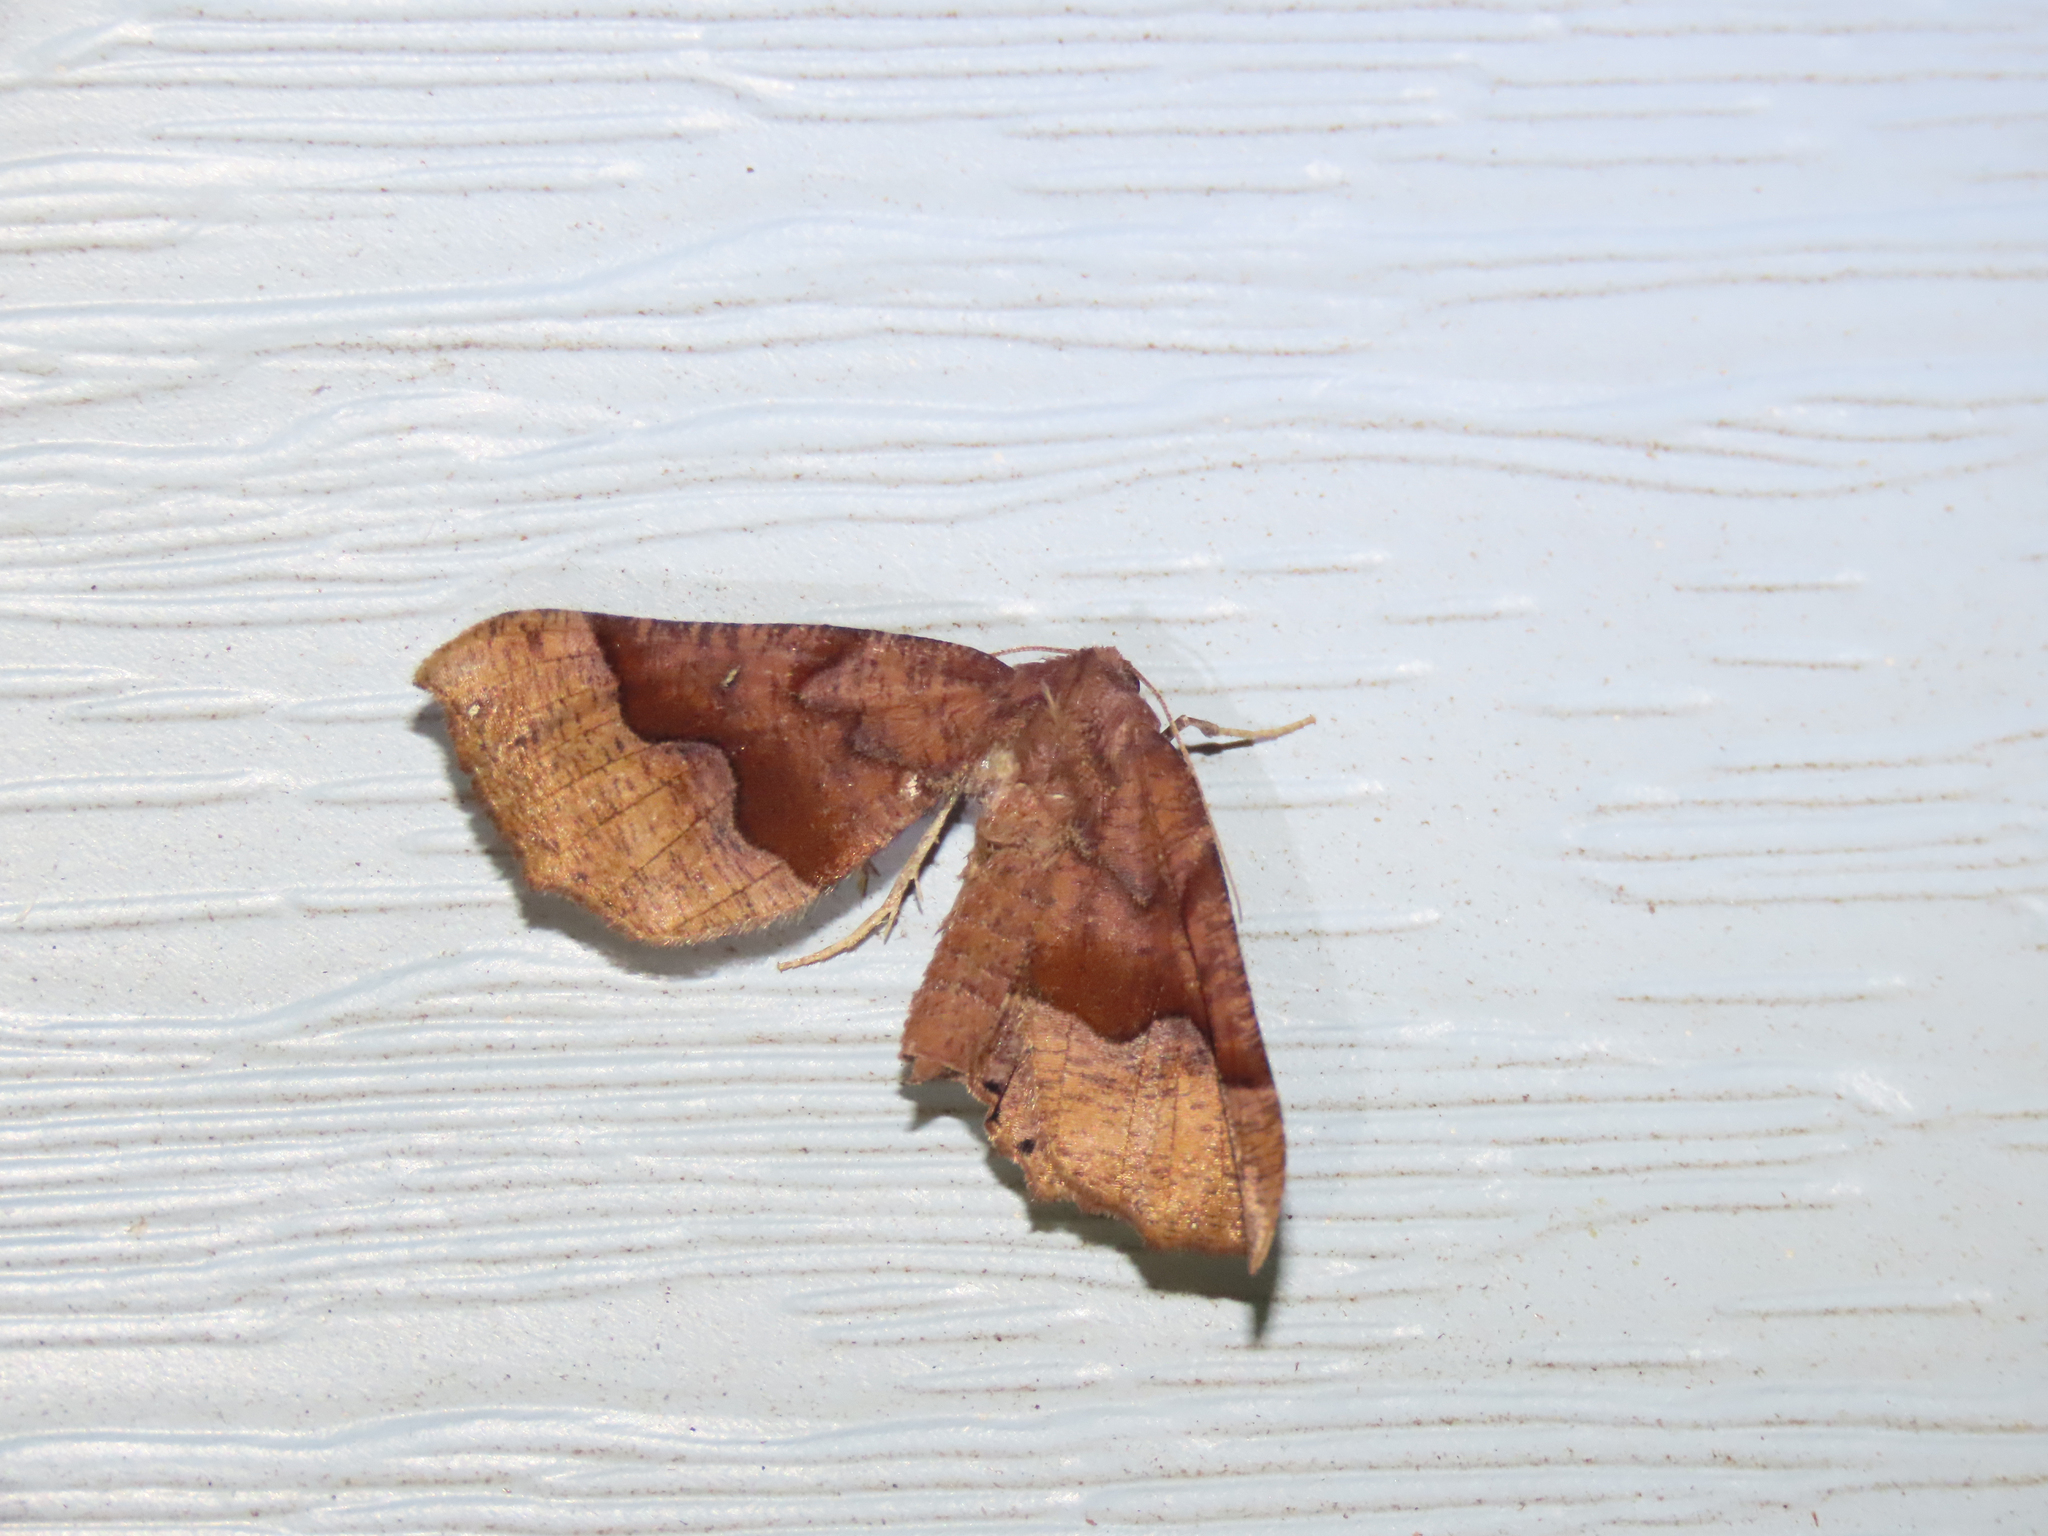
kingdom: Animalia
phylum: Arthropoda
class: Insecta
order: Lepidoptera
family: Pyralidae
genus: Pyralis
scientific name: Pyralis farinalis
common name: Meal moth
